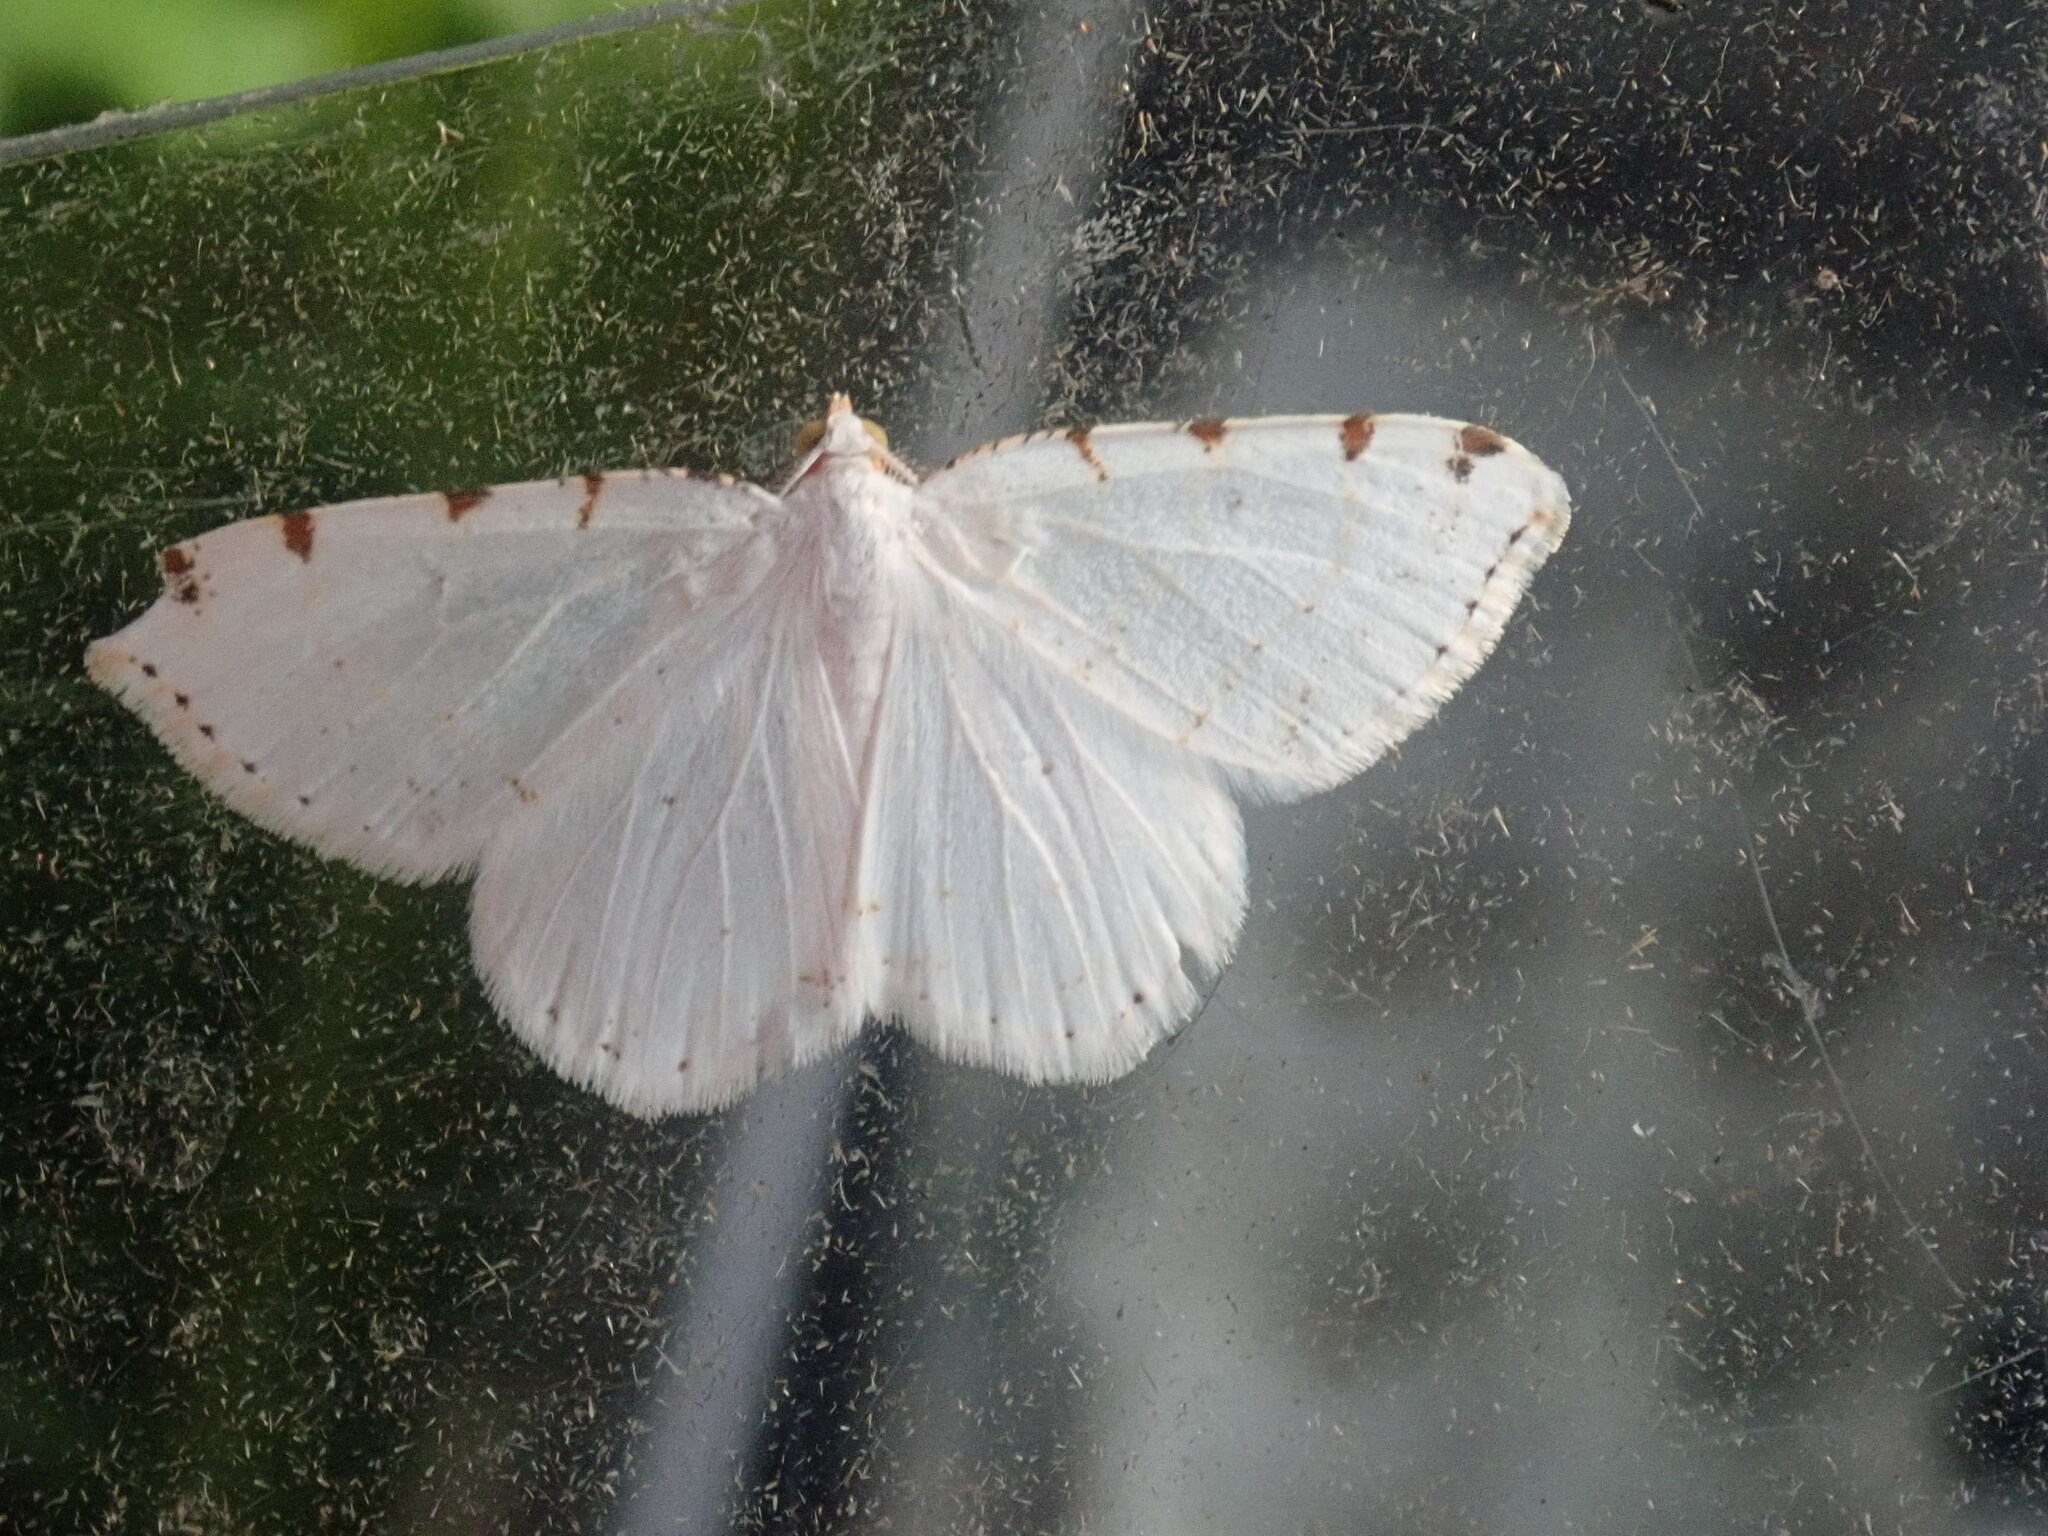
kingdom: Animalia
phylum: Arthropoda
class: Insecta
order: Lepidoptera
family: Geometridae
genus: Macaria
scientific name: Macaria pustularia
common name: Lesser maple spanworm moth
